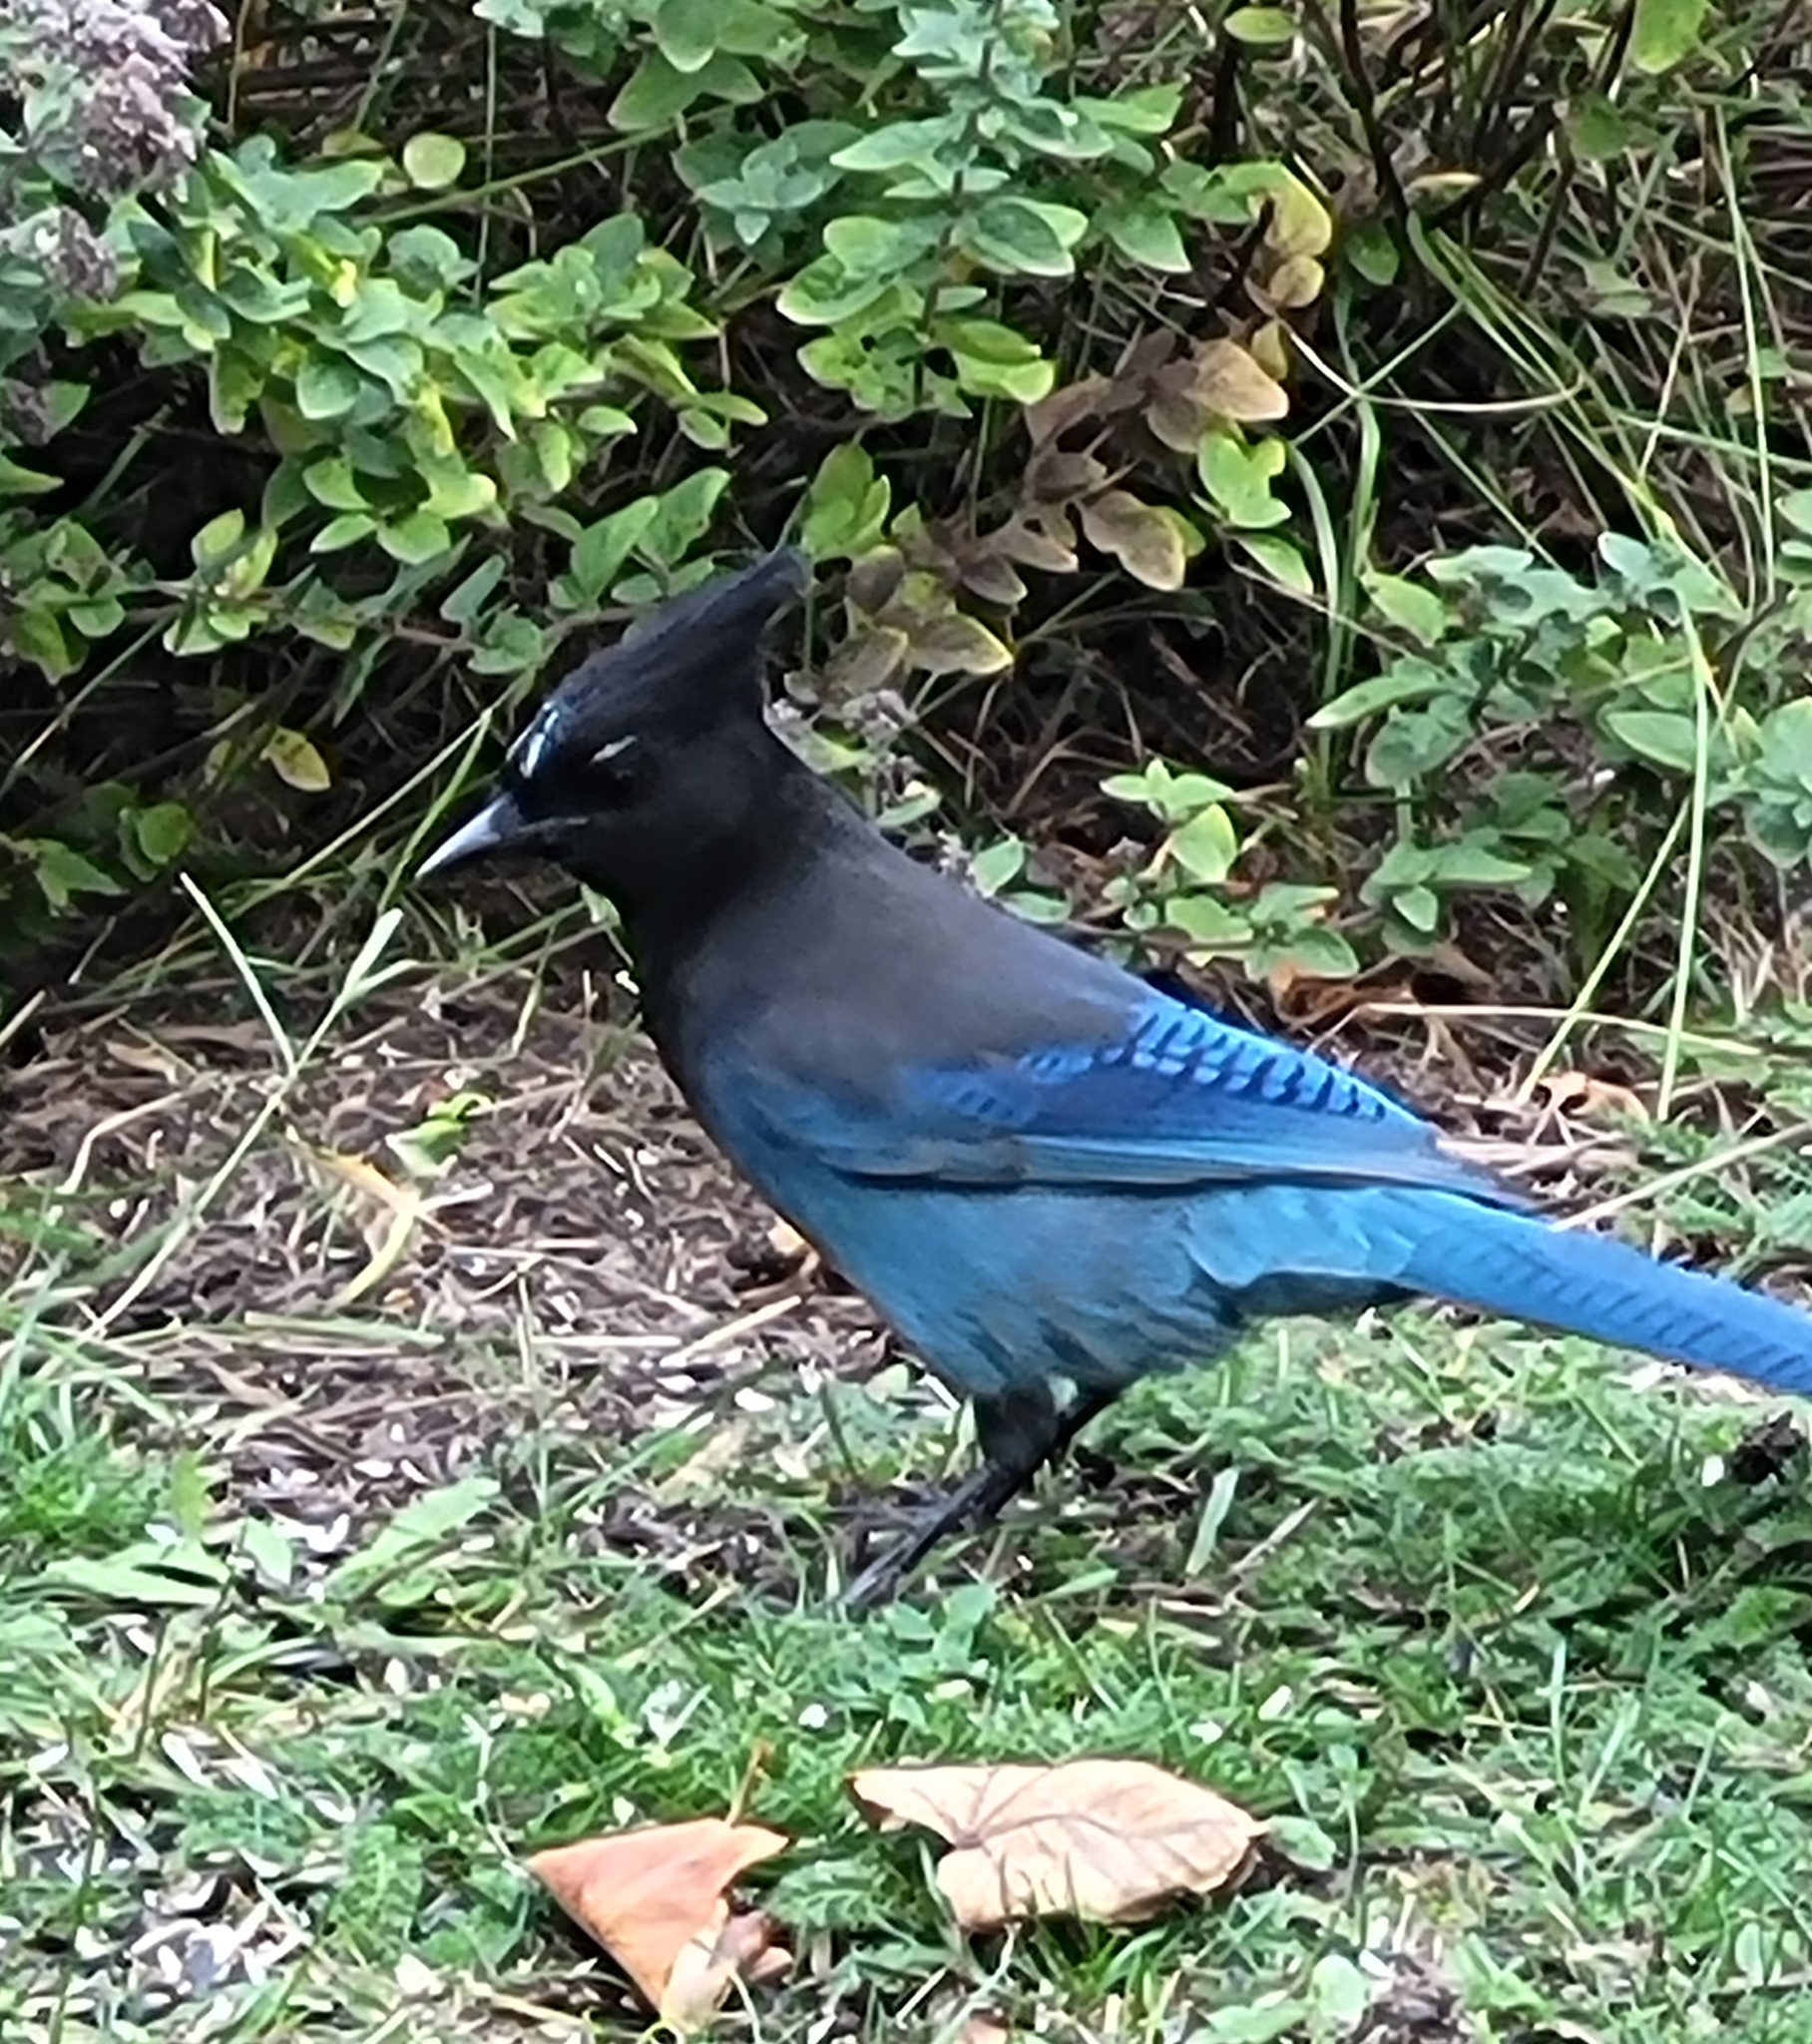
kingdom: Animalia
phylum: Chordata
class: Aves
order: Passeriformes
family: Corvidae
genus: Cyanocitta
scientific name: Cyanocitta stelleri
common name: Steller's jay
